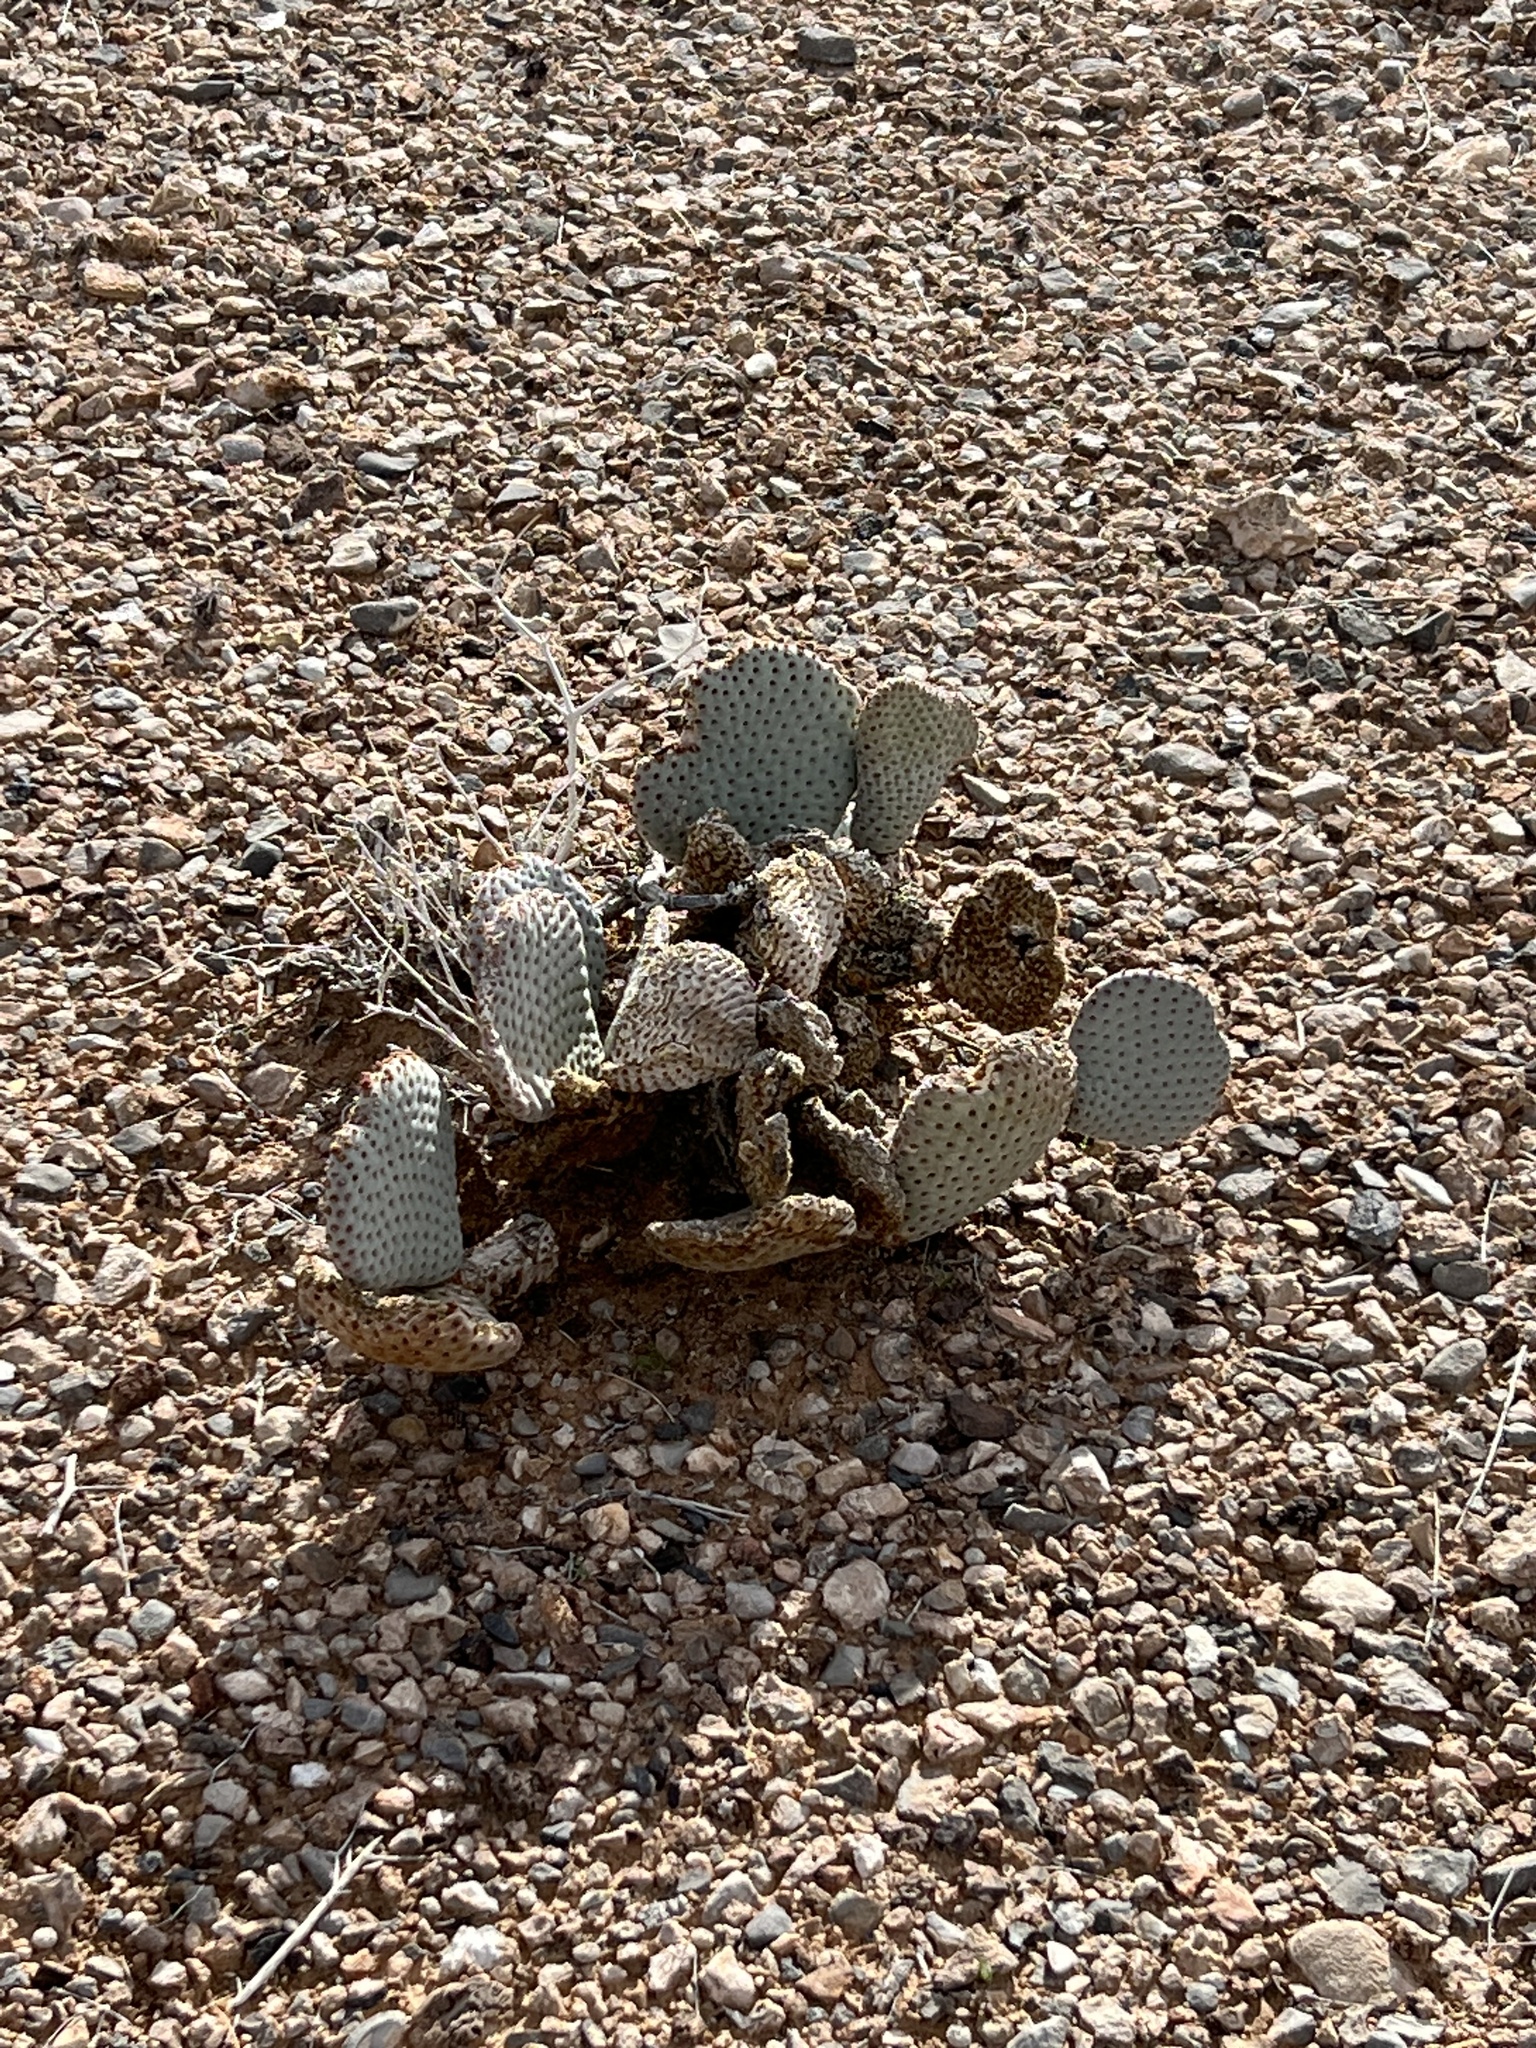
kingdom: Plantae
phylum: Tracheophyta
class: Magnoliopsida
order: Caryophyllales
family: Cactaceae
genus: Opuntia
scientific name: Opuntia basilaris
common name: Beavertail prickly-pear
